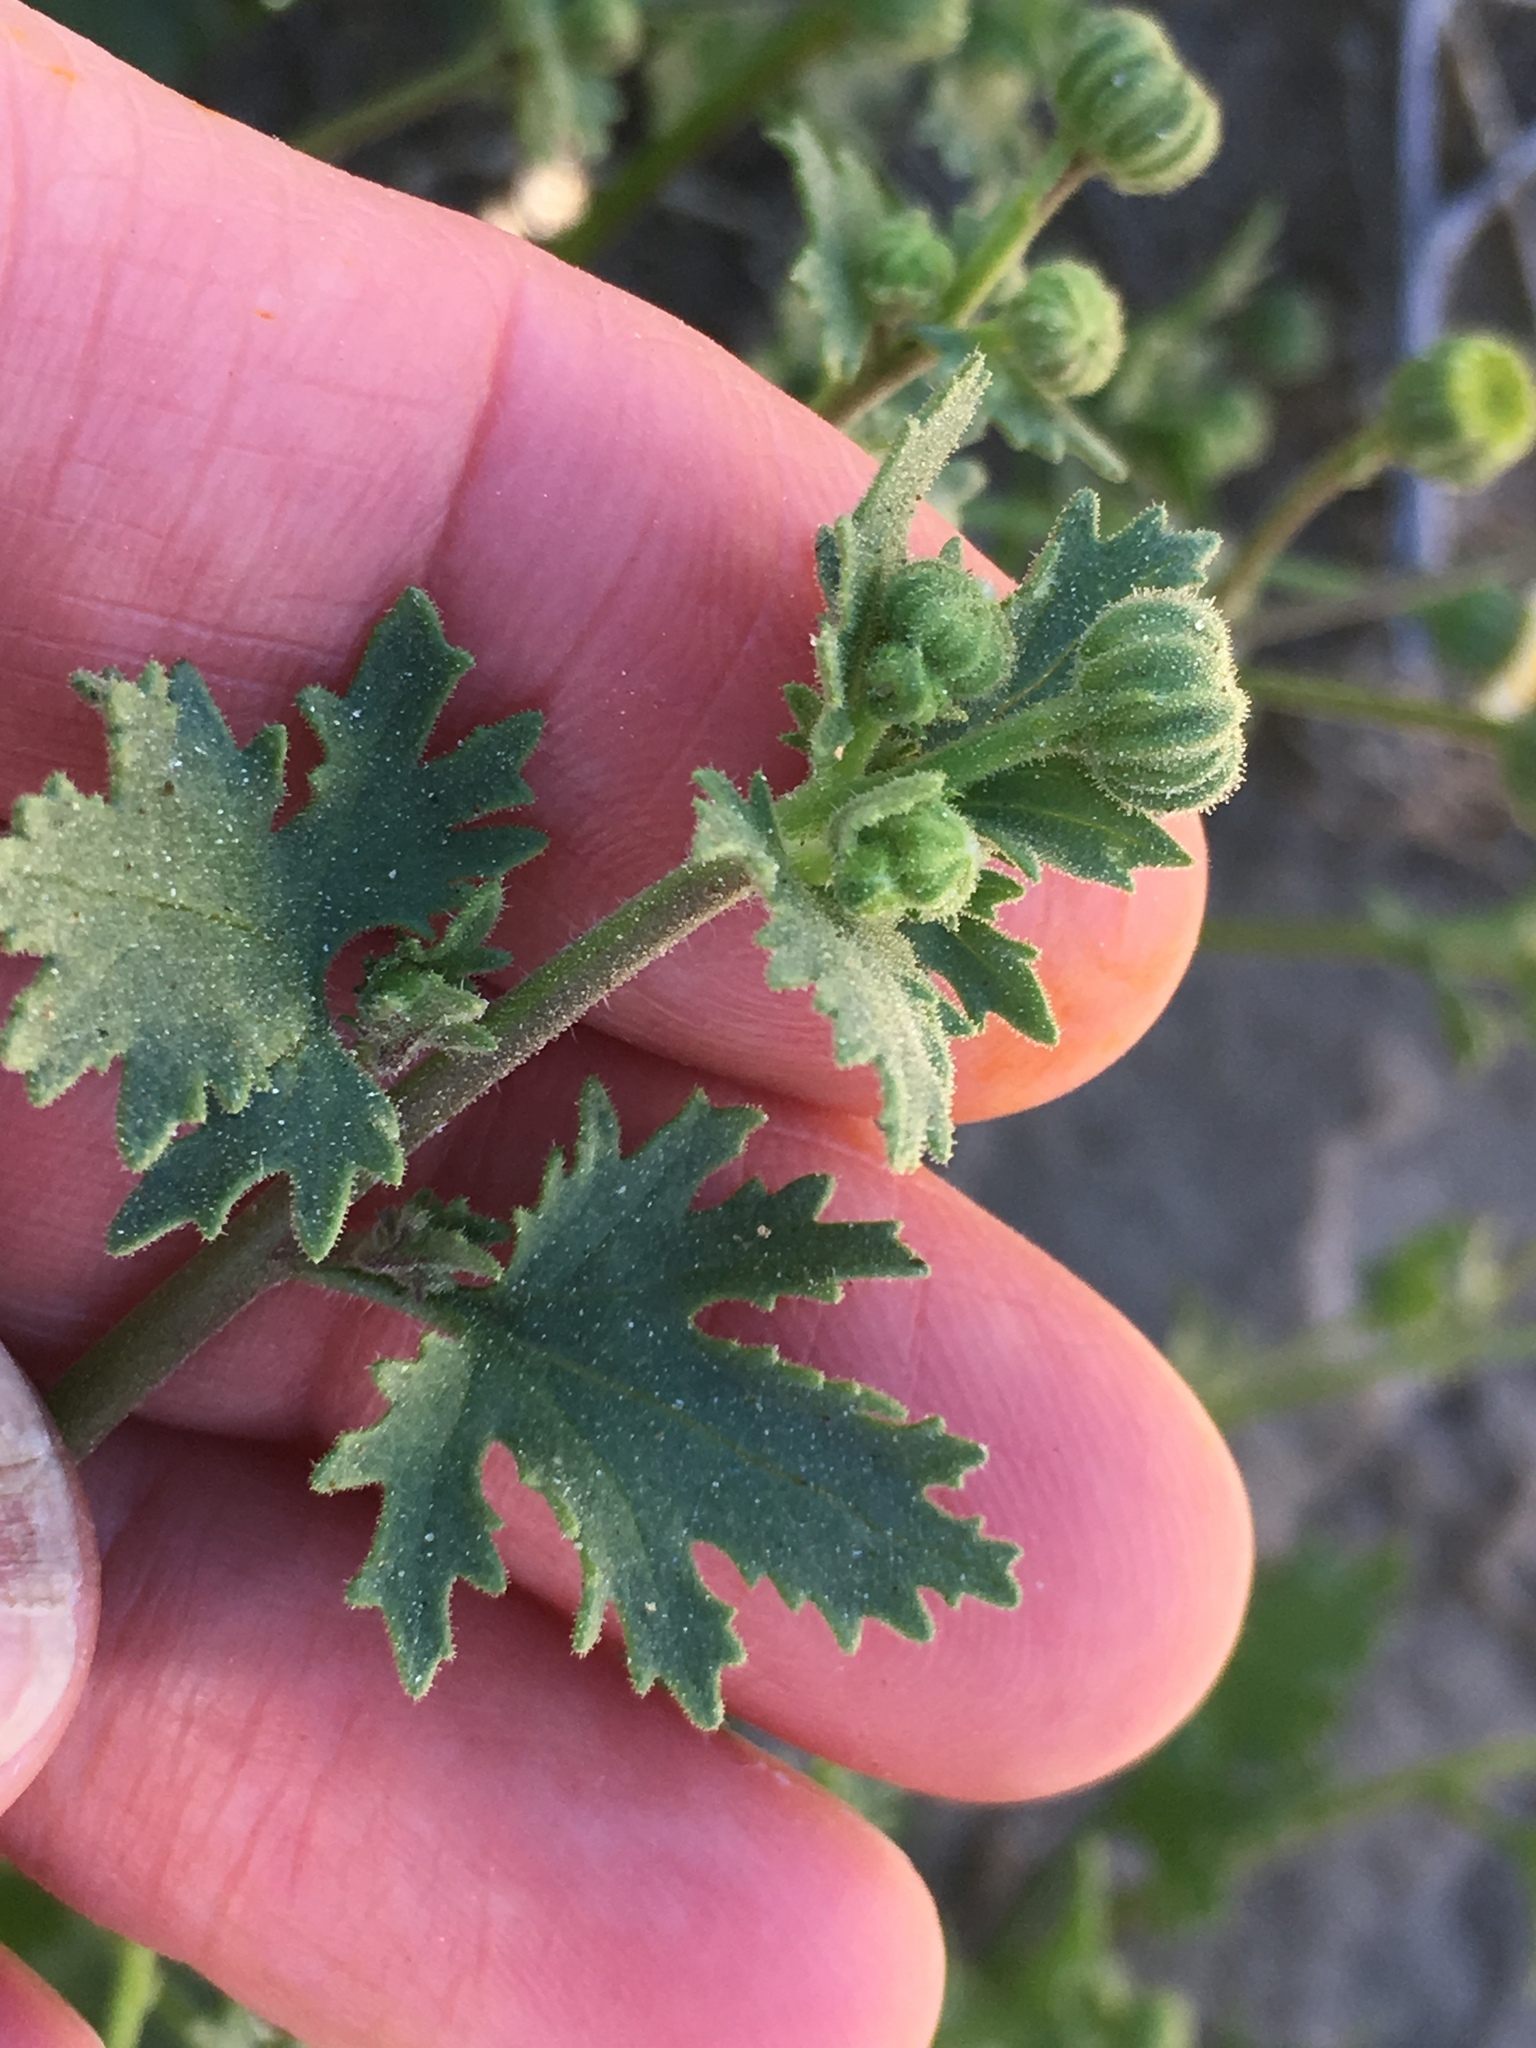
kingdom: Plantae
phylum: Tracheophyta
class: Magnoliopsida
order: Asterales
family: Asteraceae
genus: Laphamia
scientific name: Laphamia emoryi
